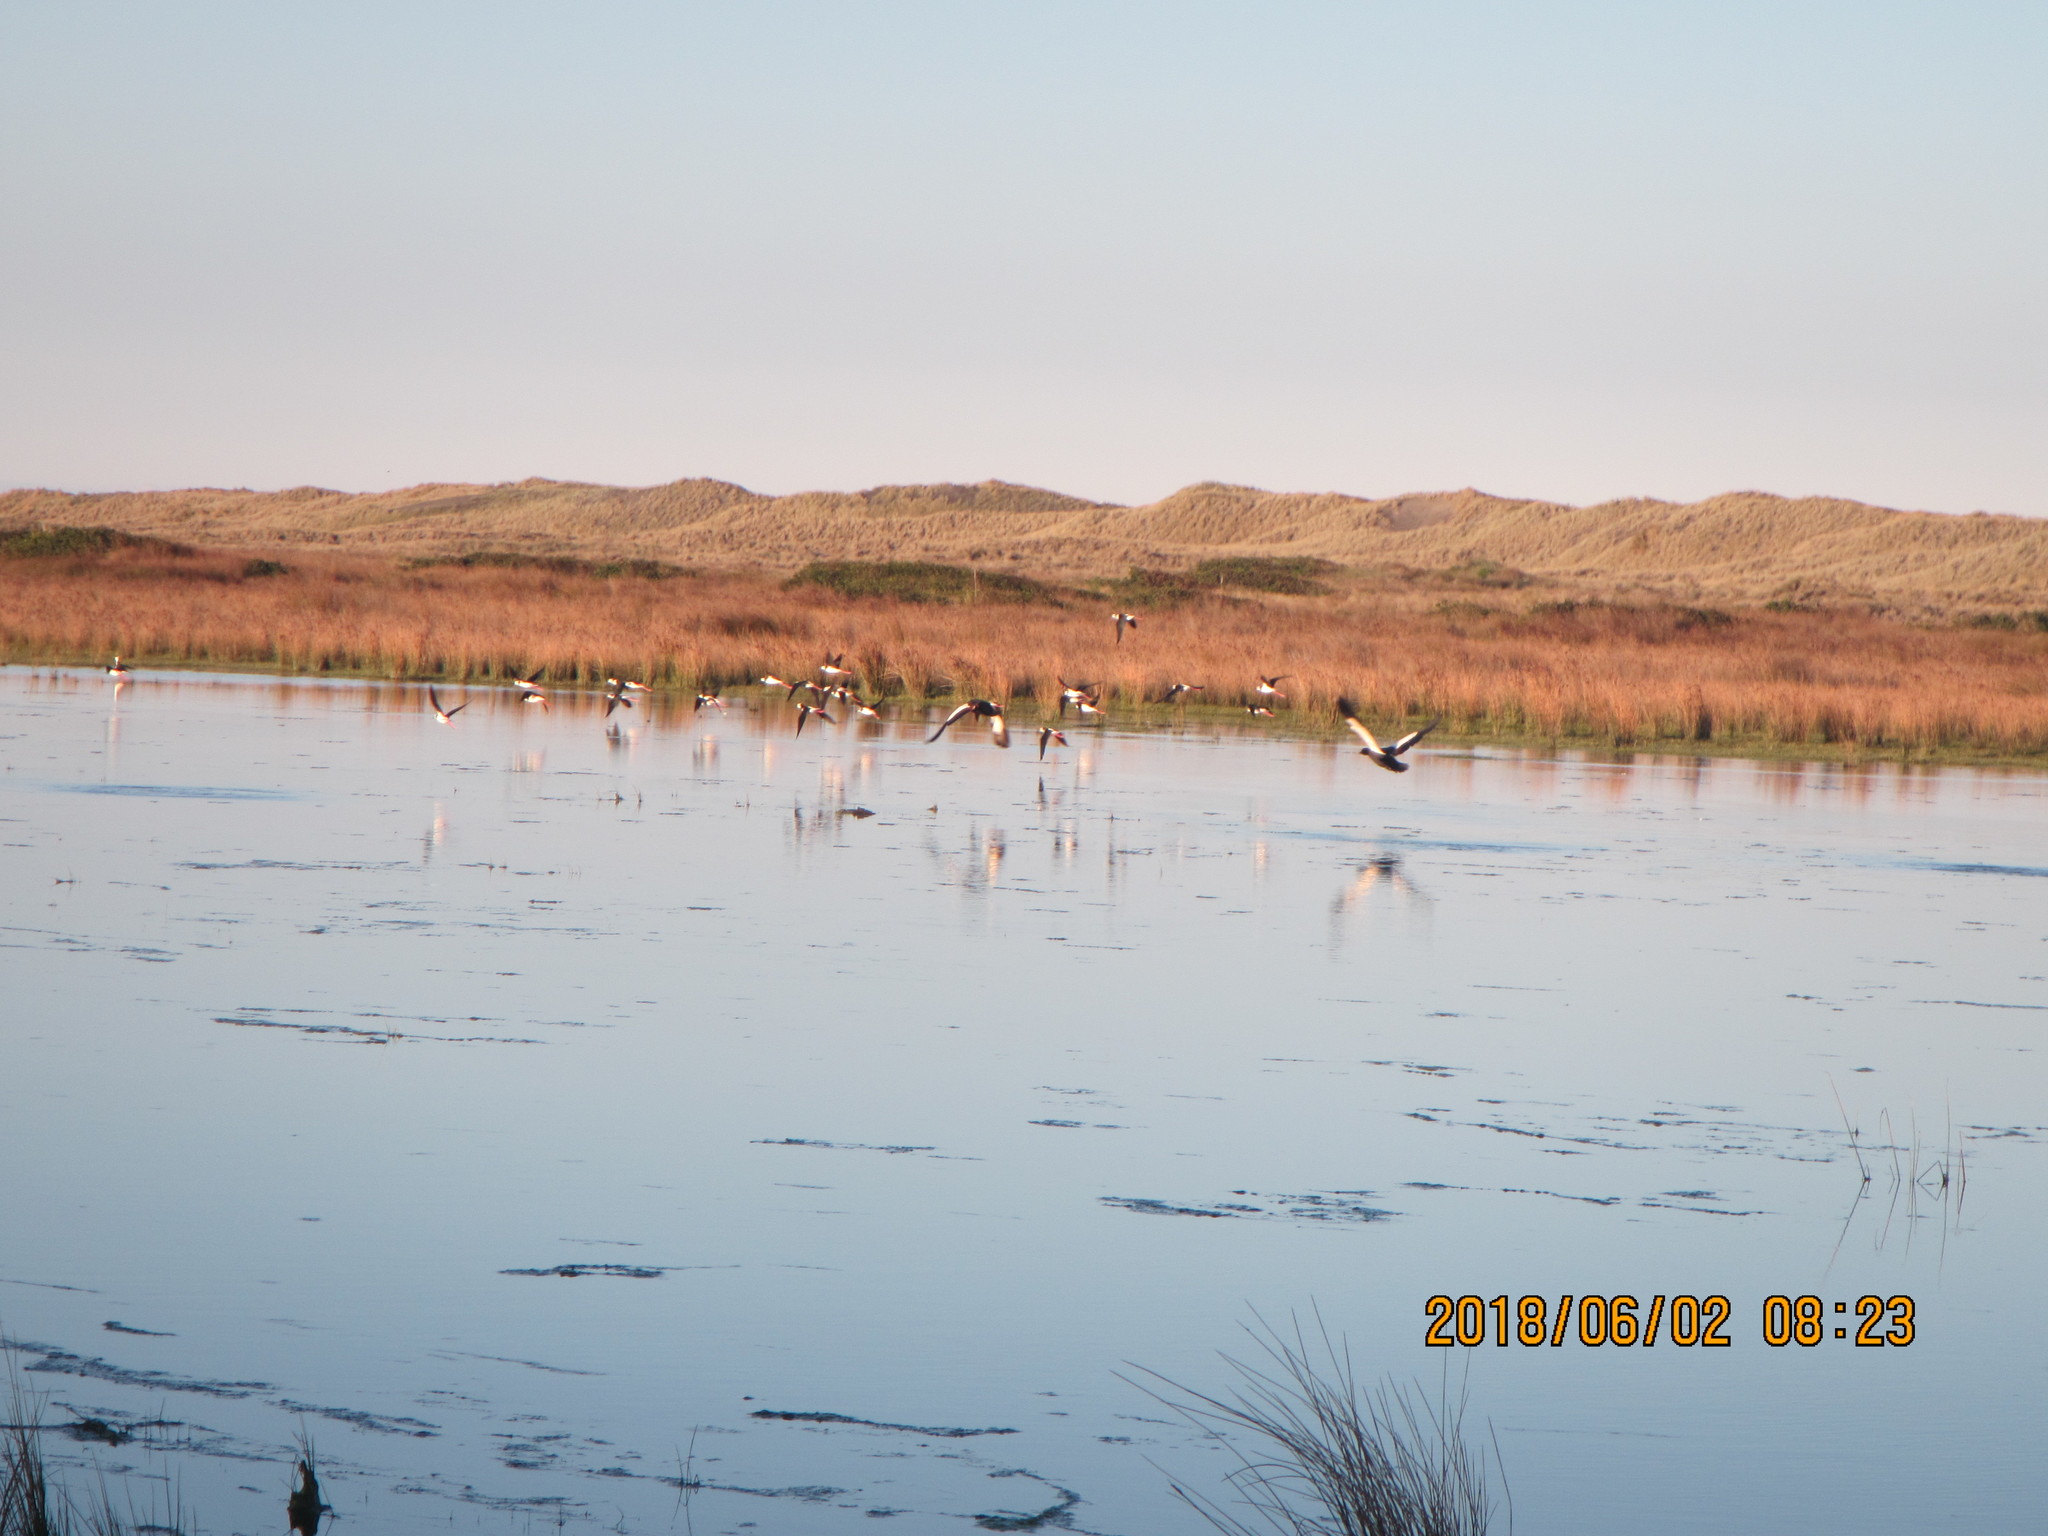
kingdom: Animalia
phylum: Chordata
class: Aves
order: Anseriformes
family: Anatidae
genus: Tadorna
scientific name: Tadorna variegata
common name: Paradise shelduck
